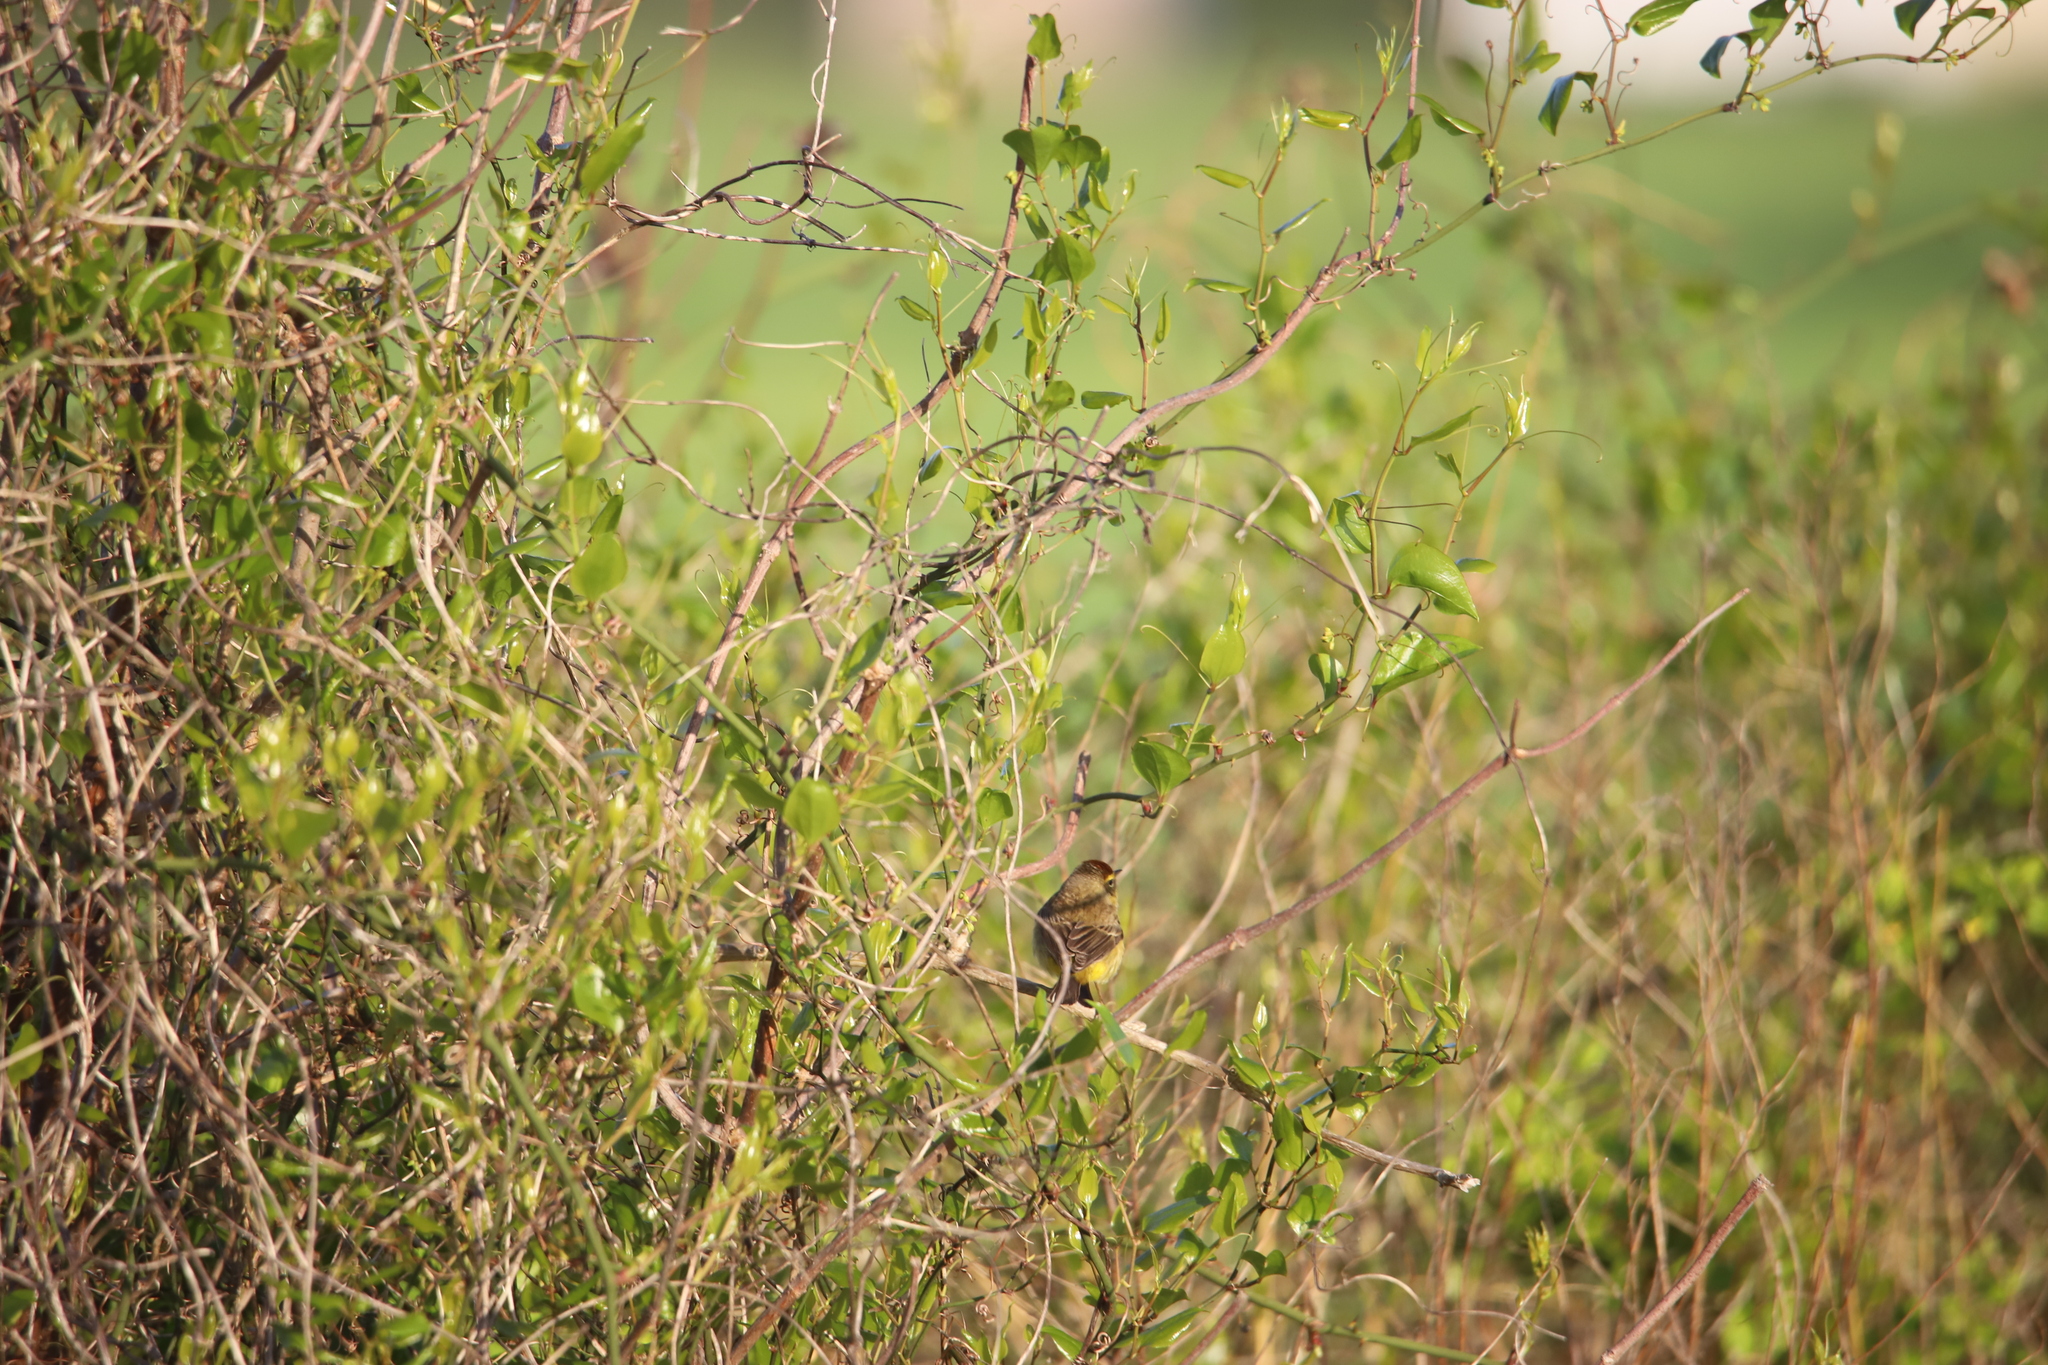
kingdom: Animalia
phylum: Chordata
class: Aves
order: Passeriformes
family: Parulidae
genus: Setophaga
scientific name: Setophaga palmarum
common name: Palm warbler
